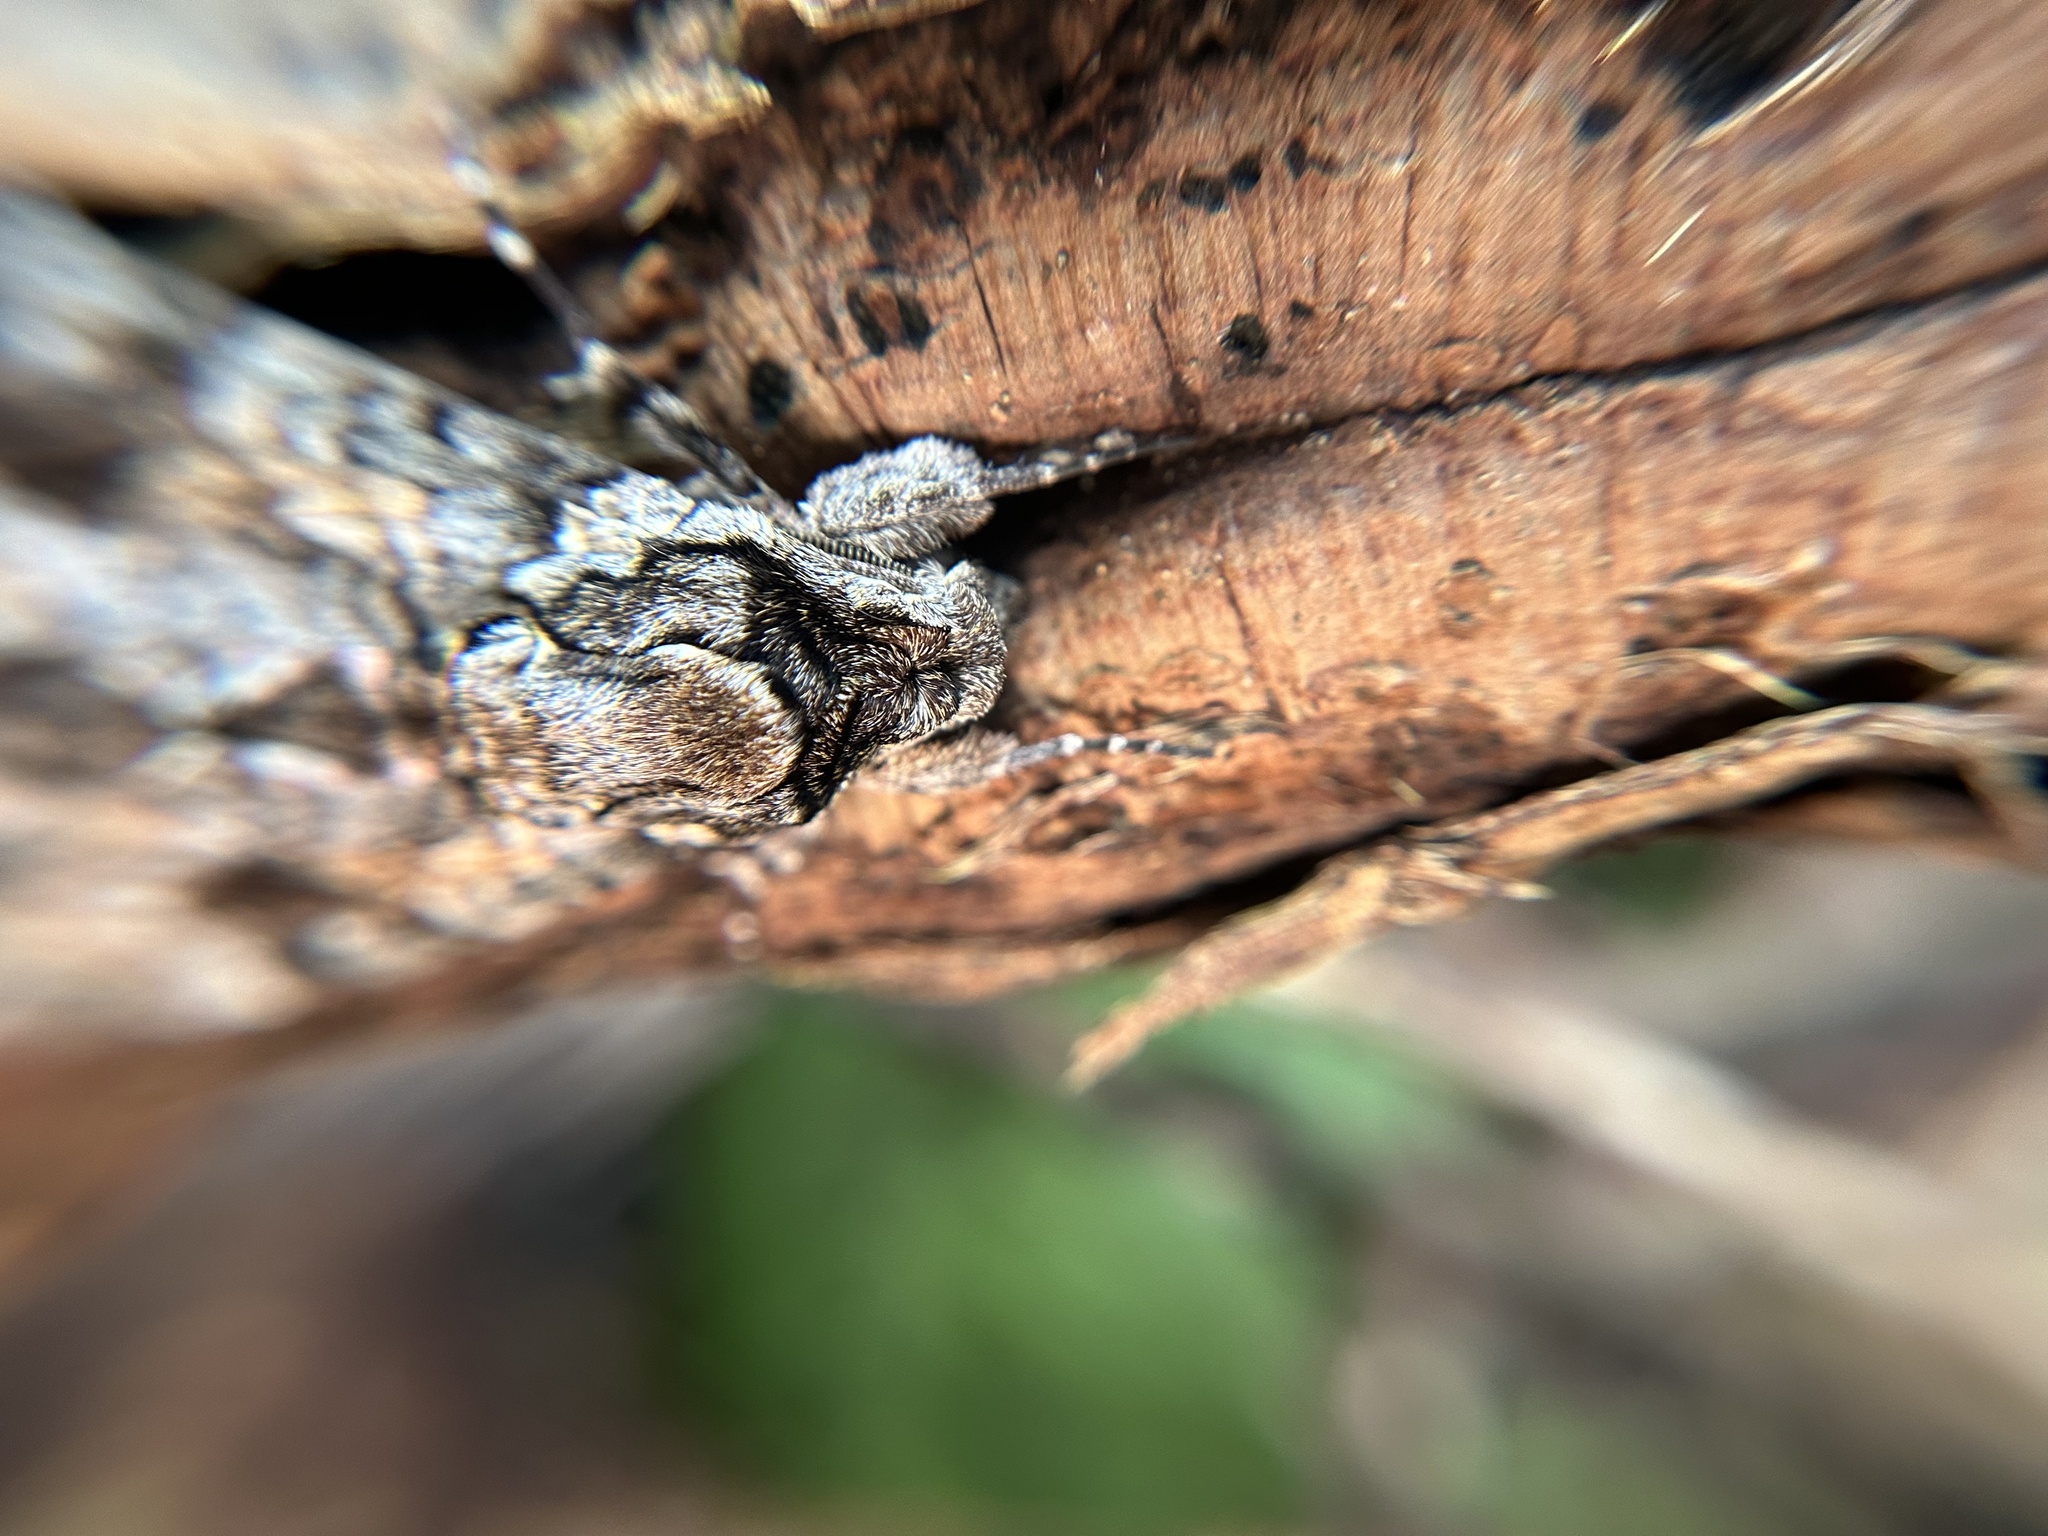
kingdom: Animalia
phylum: Arthropoda
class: Insecta
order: Lepidoptera
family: Sphingidae
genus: Agrius
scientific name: Agrius cingulata
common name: Pink-spotted hawkmoth
